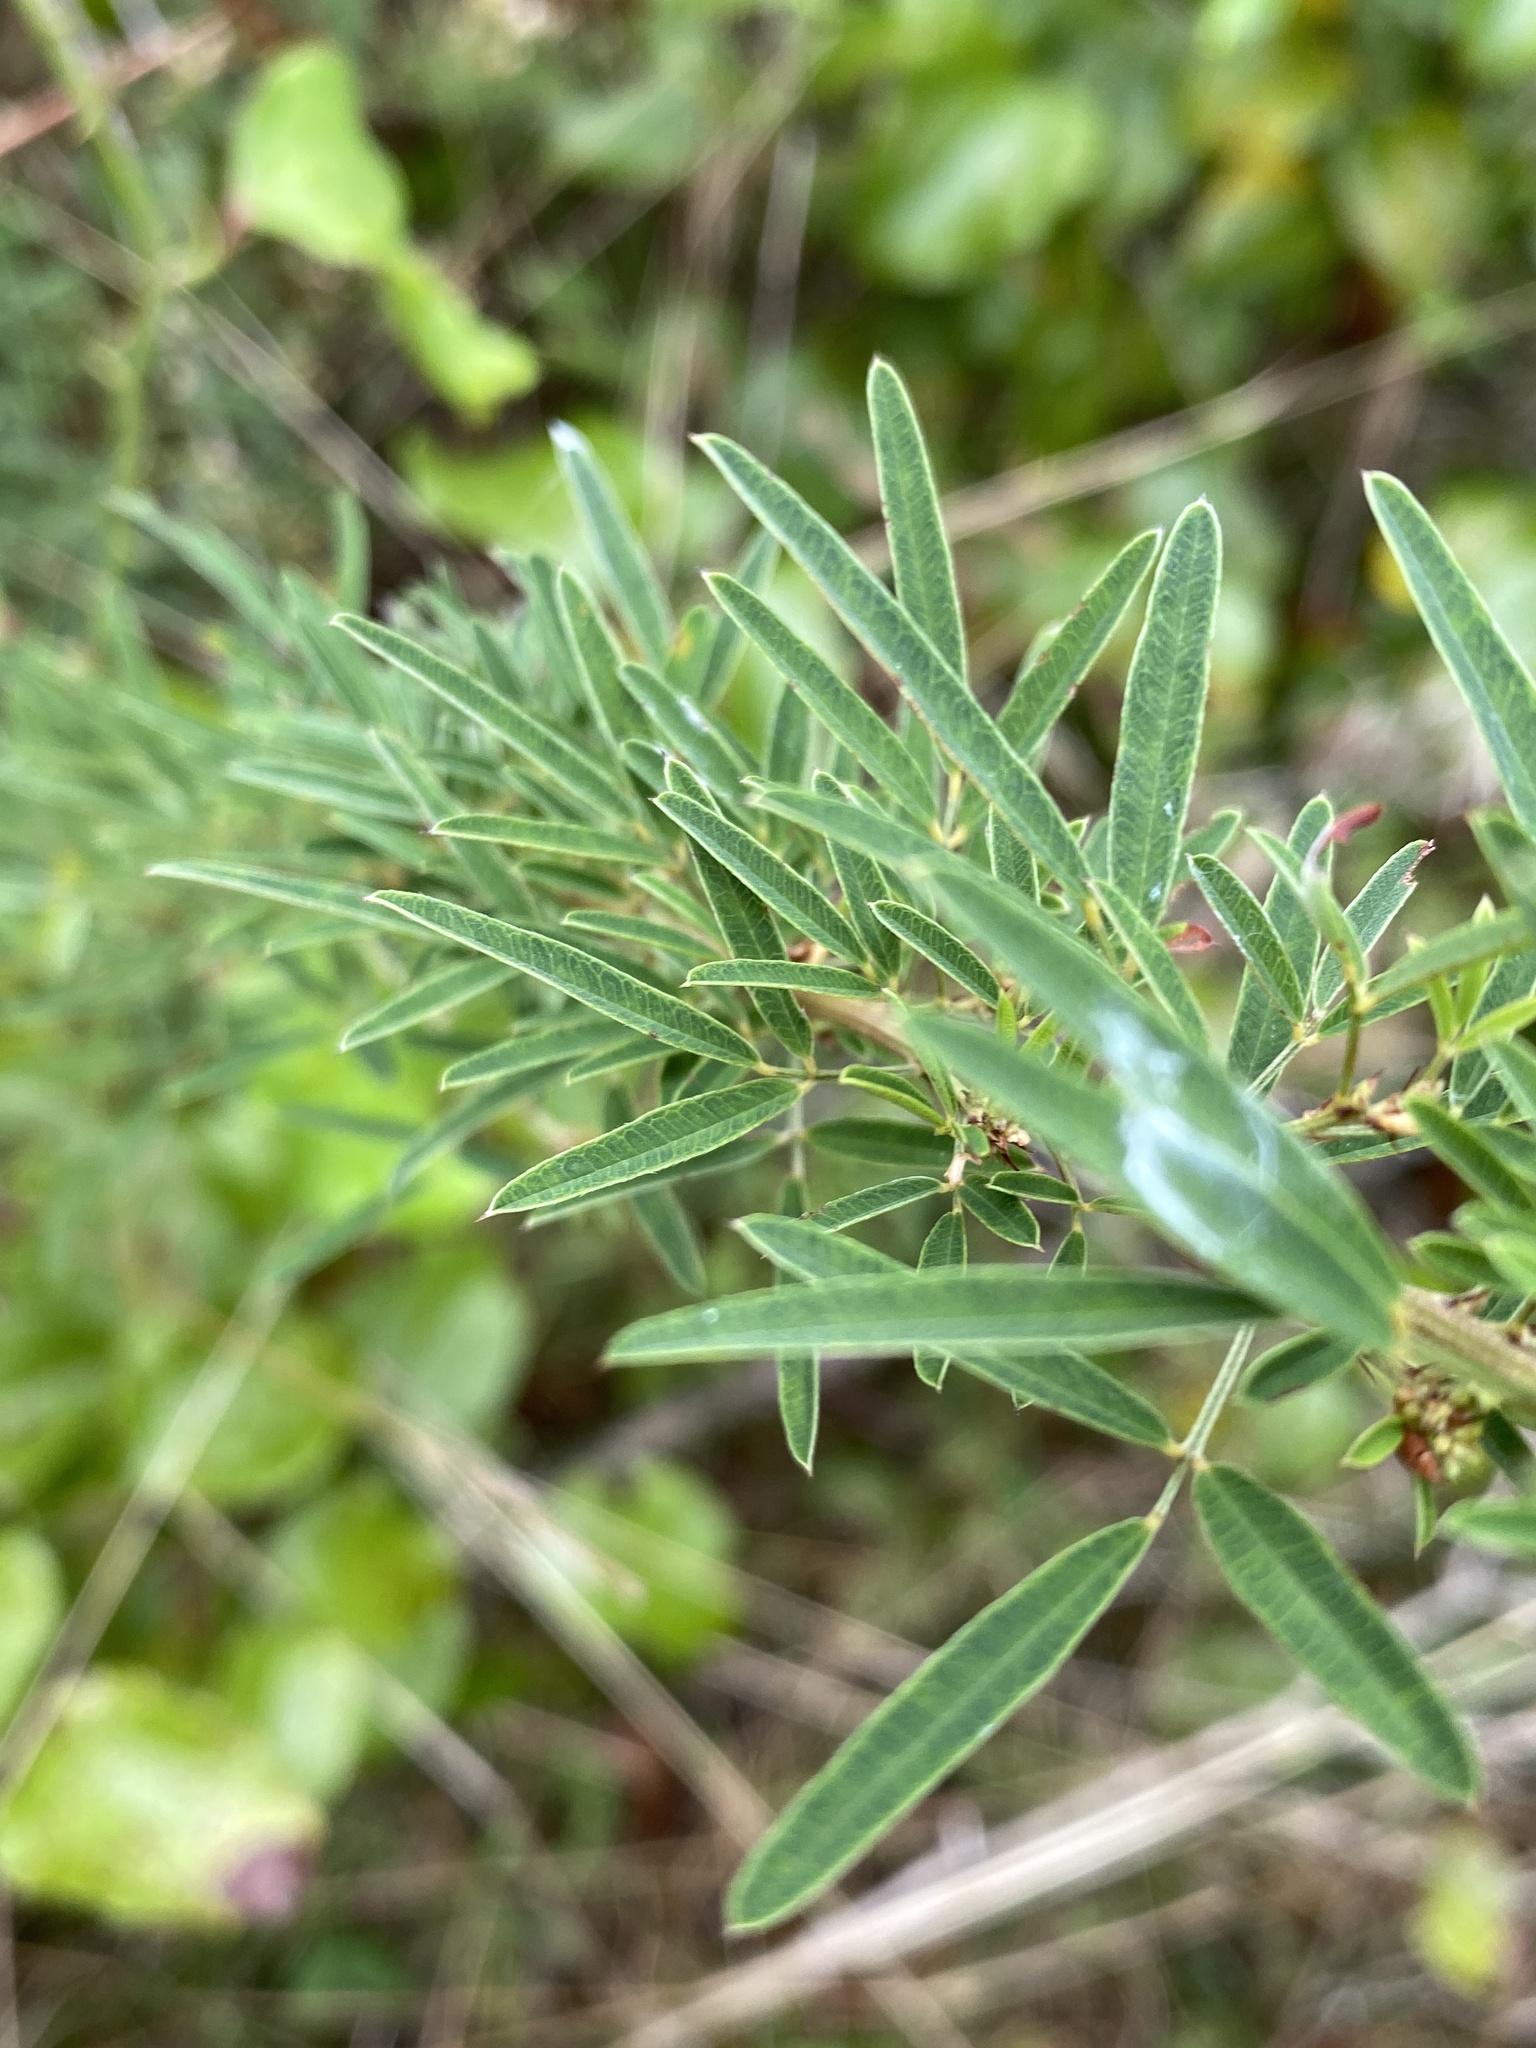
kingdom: Plantae
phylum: Tracheophyta
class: Magnoliopsida
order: Fabales
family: Fabaceae
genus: Lespedeza
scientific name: Lespedeza virginica
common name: Slender bush-clover
